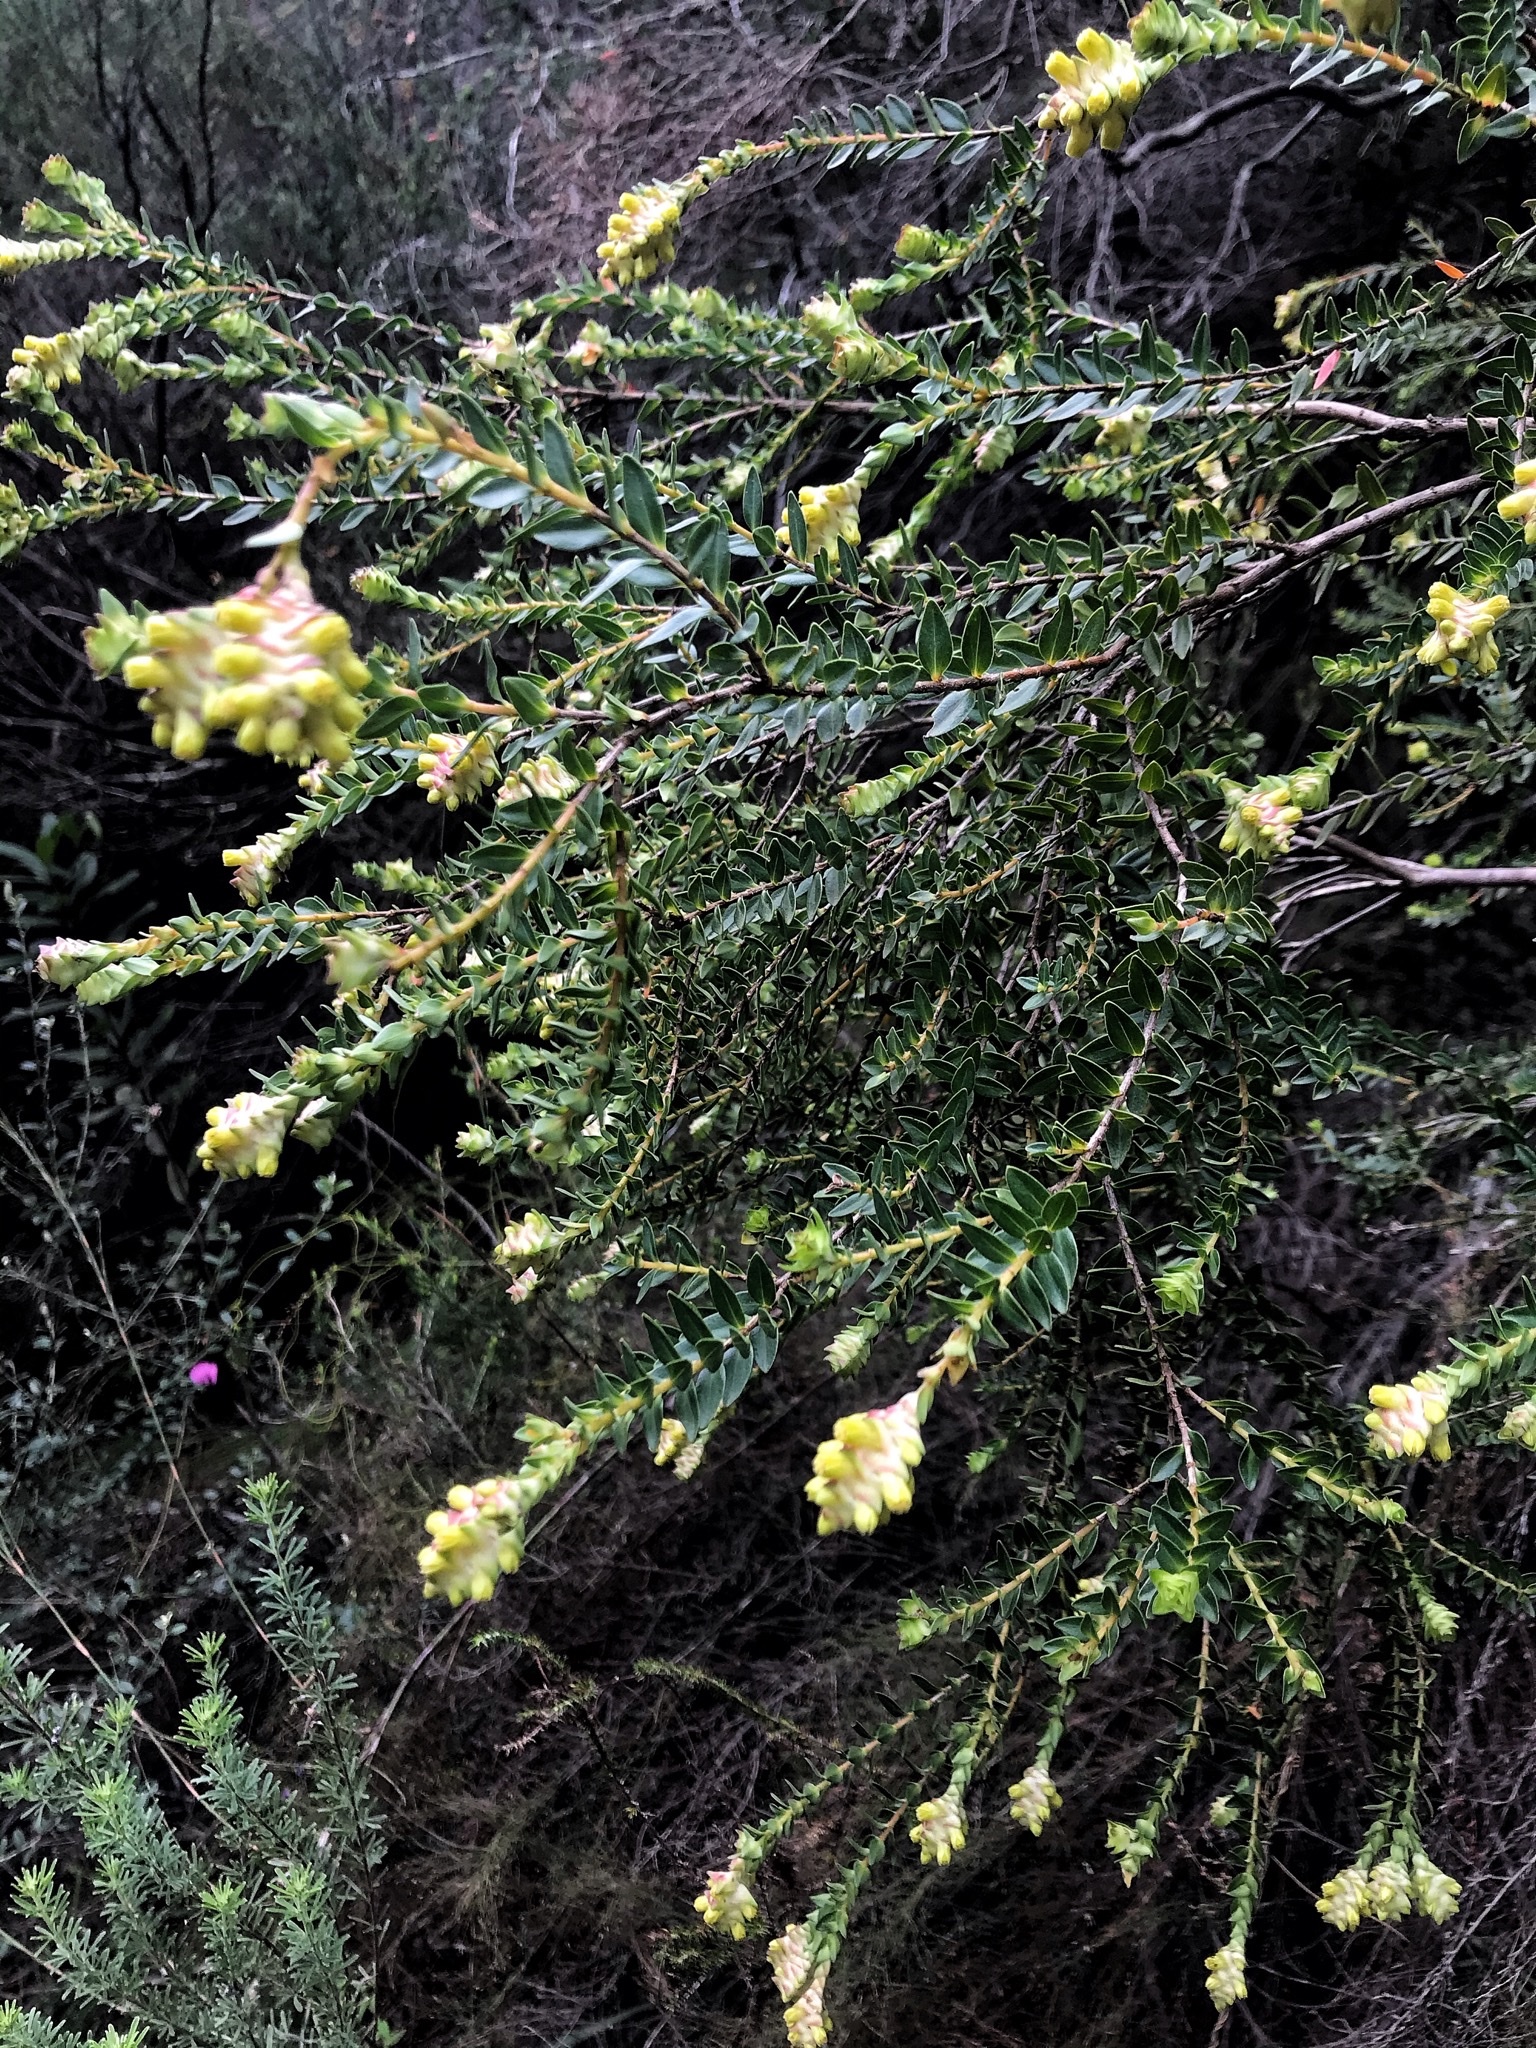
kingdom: Plantae
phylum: Tracheophyta
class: Magnoliopsida
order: Myrtales
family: Penaeaceae
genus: Penaea
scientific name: Penaea cneorum
